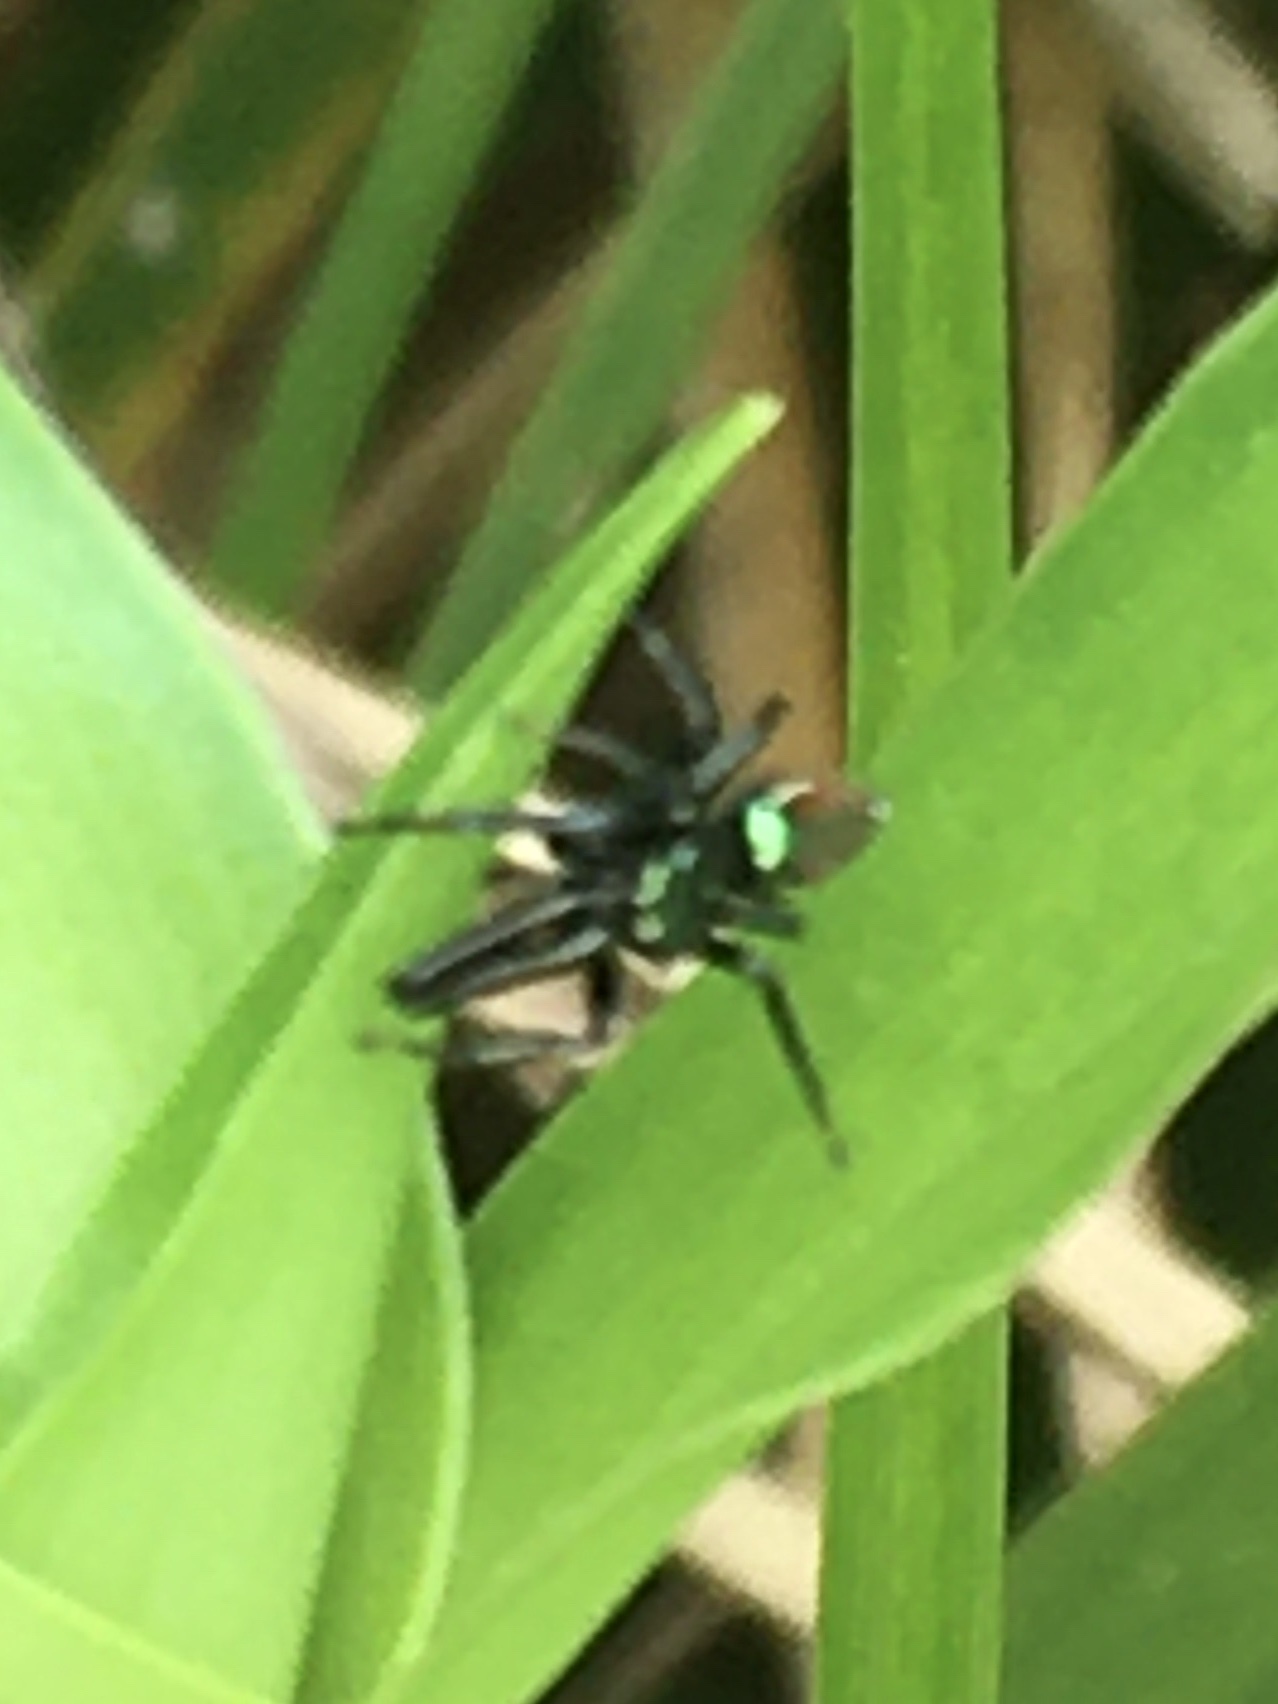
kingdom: Animalia
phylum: Arthropoda
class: Arachnida
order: Araneae
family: Salticidae
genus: Bagheera
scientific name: Bagheera laselva
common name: Jumping spiders
